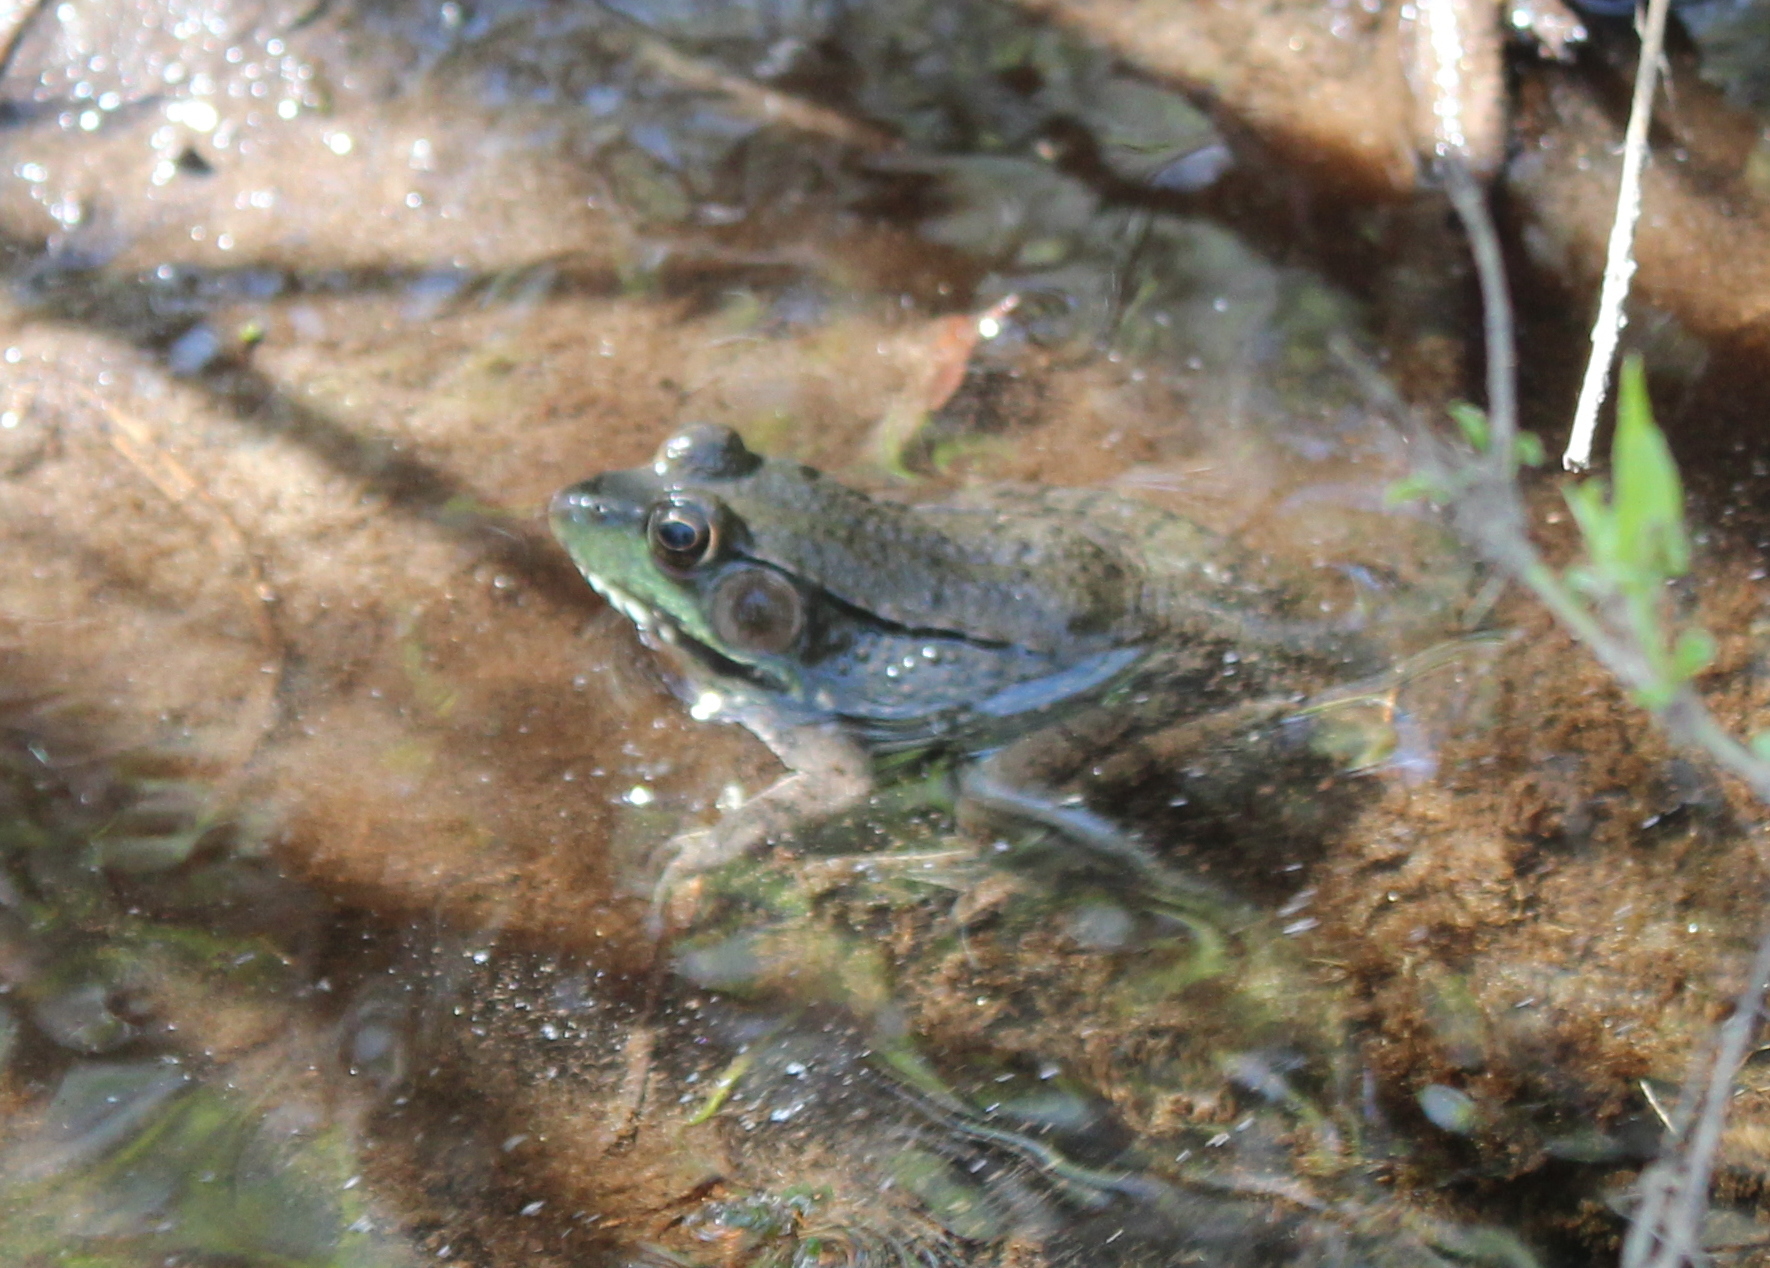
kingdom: Animalia
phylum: Chordata
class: Amphibia
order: Anura
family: Ranidae
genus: Lithobates
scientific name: Lithobates clamitans
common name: Green frog
